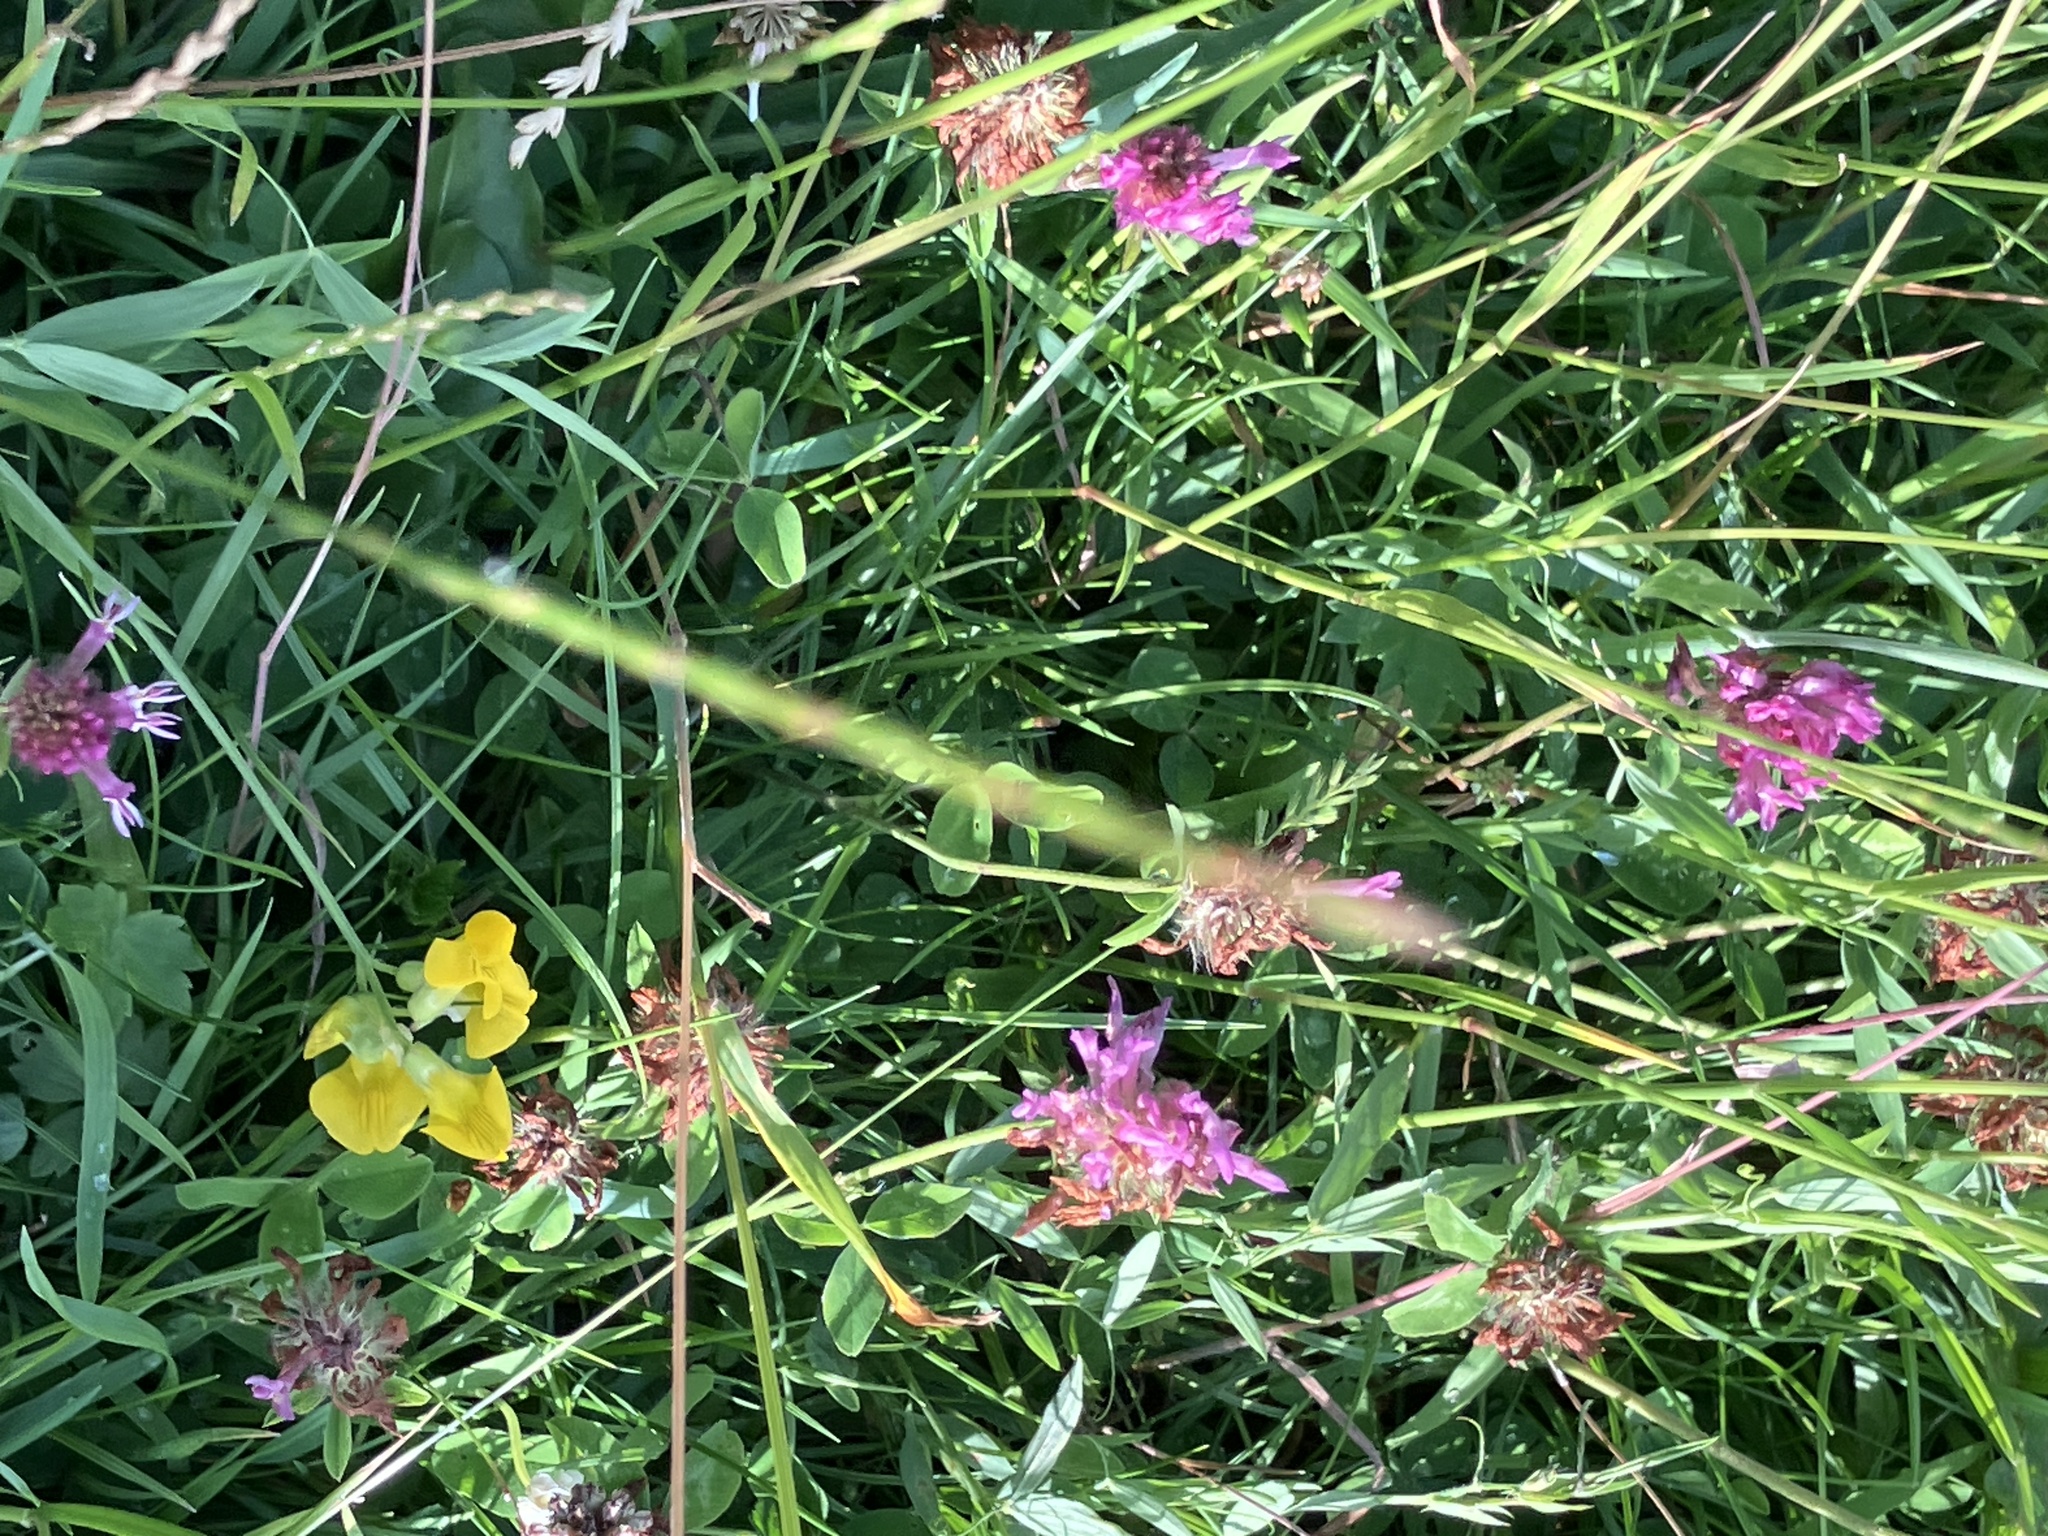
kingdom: Plantae
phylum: Tracheophyta
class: Magnoliopsida
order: Fabales
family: Fabaceae
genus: Trifolium
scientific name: Trifolium pratense
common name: Red clover
